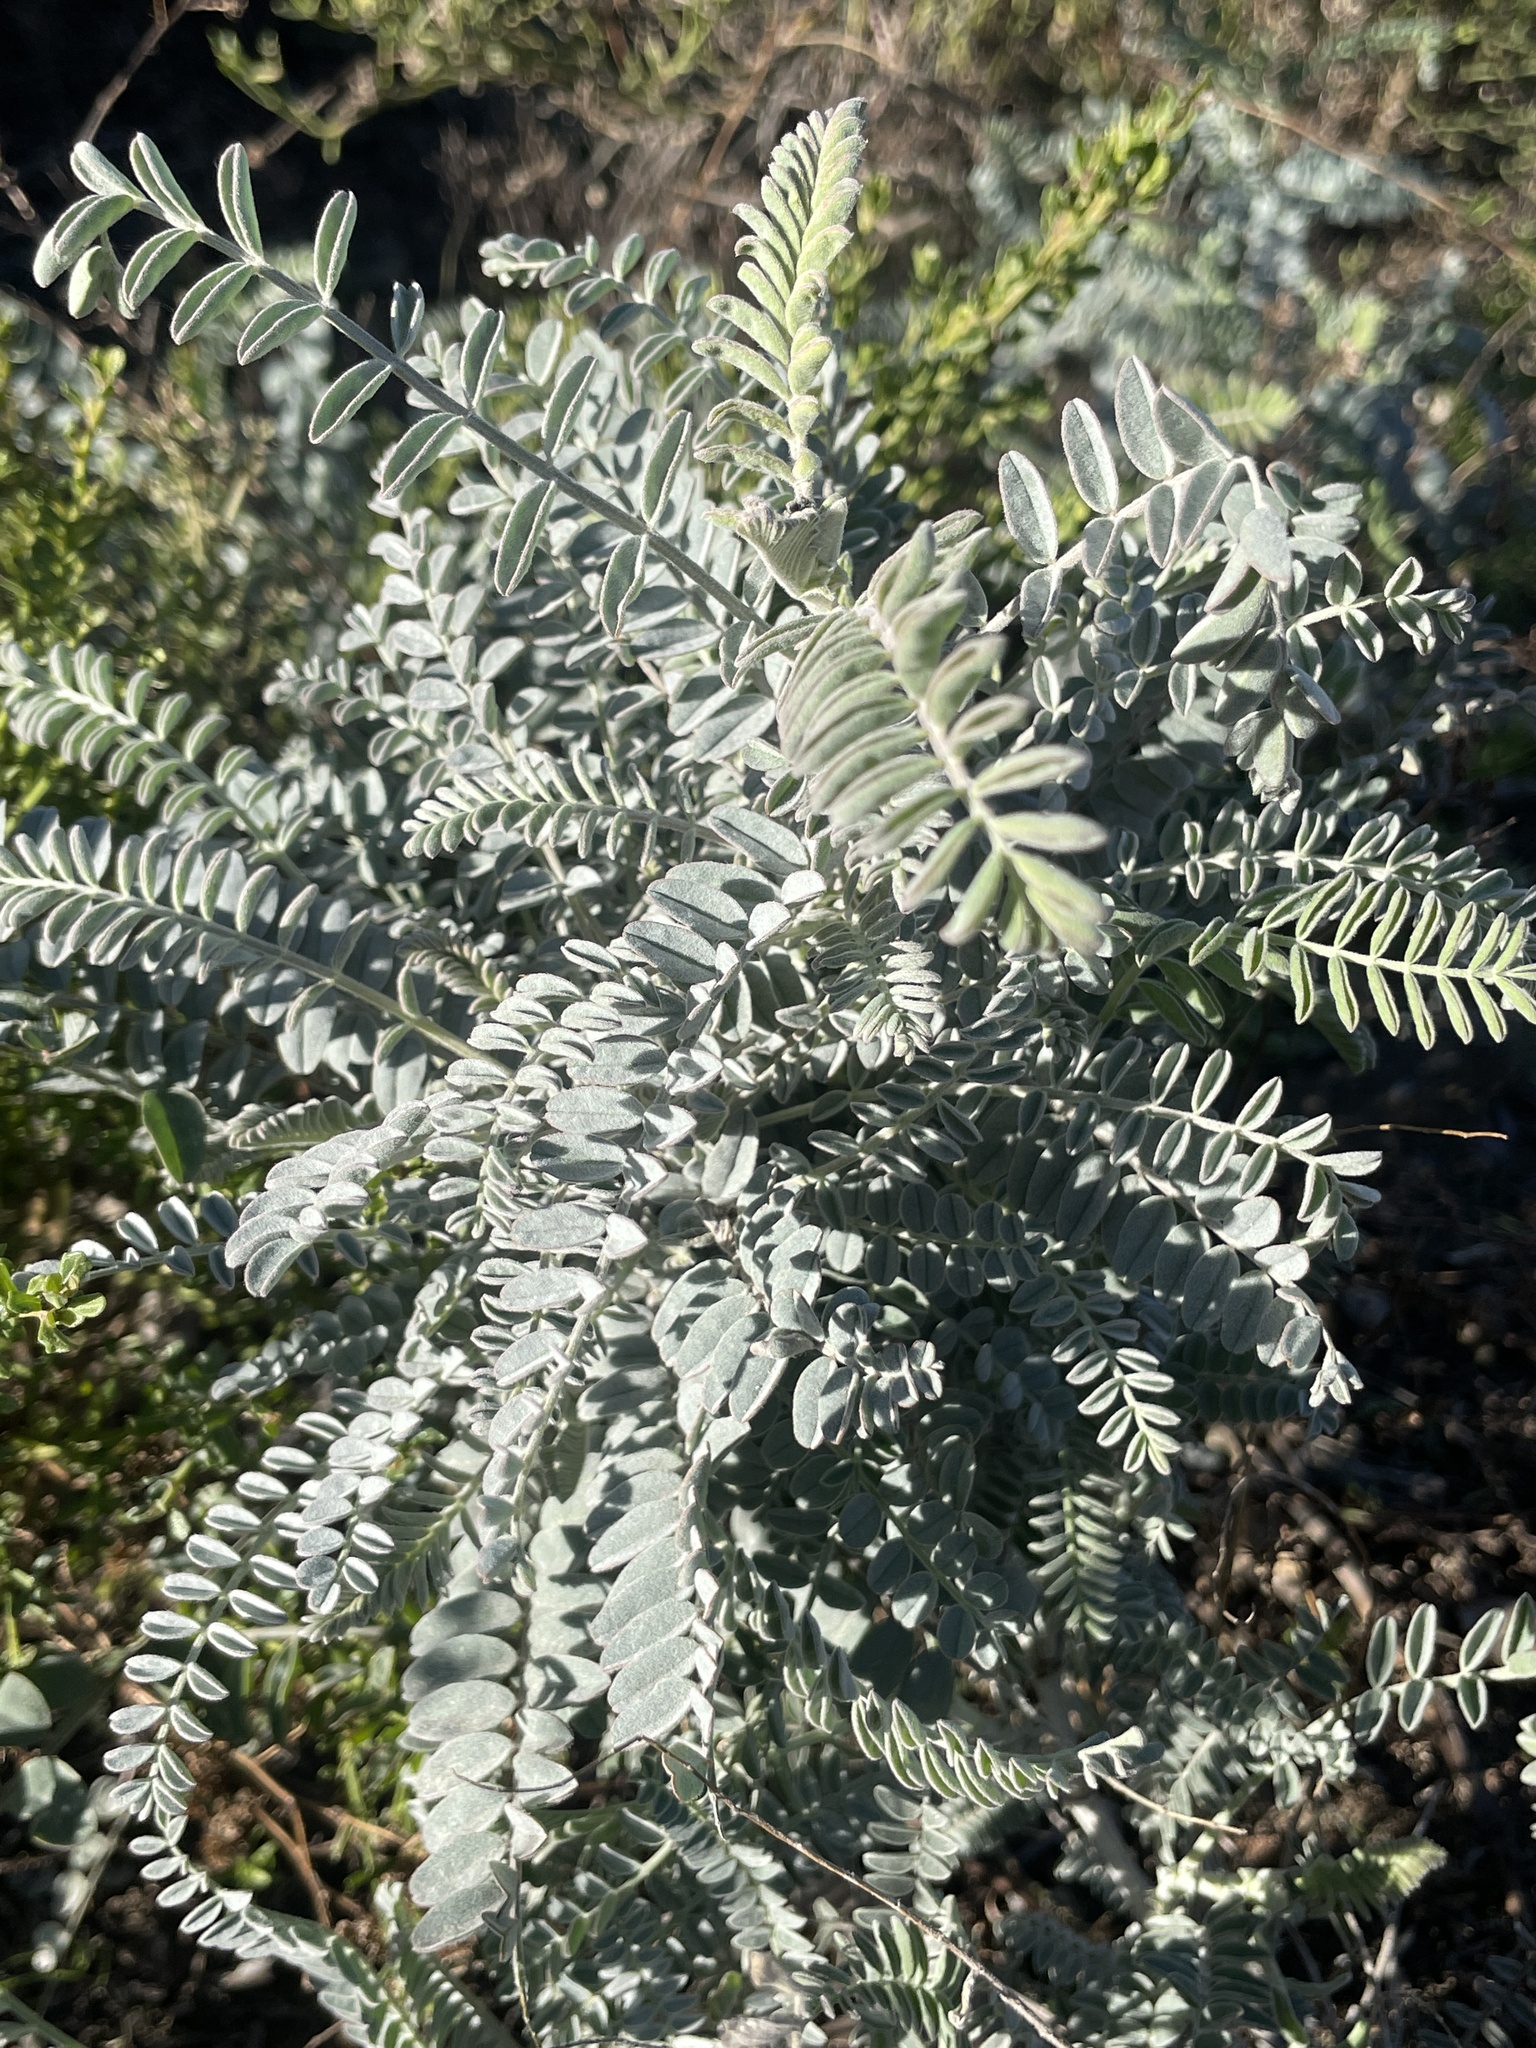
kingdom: Plantae
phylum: Tracheophyta
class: Magnoliopsida
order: Fabales
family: Fabaceae
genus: Astragalus
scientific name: Astragalus trichopodus
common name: Santa barbara milk-vetch
